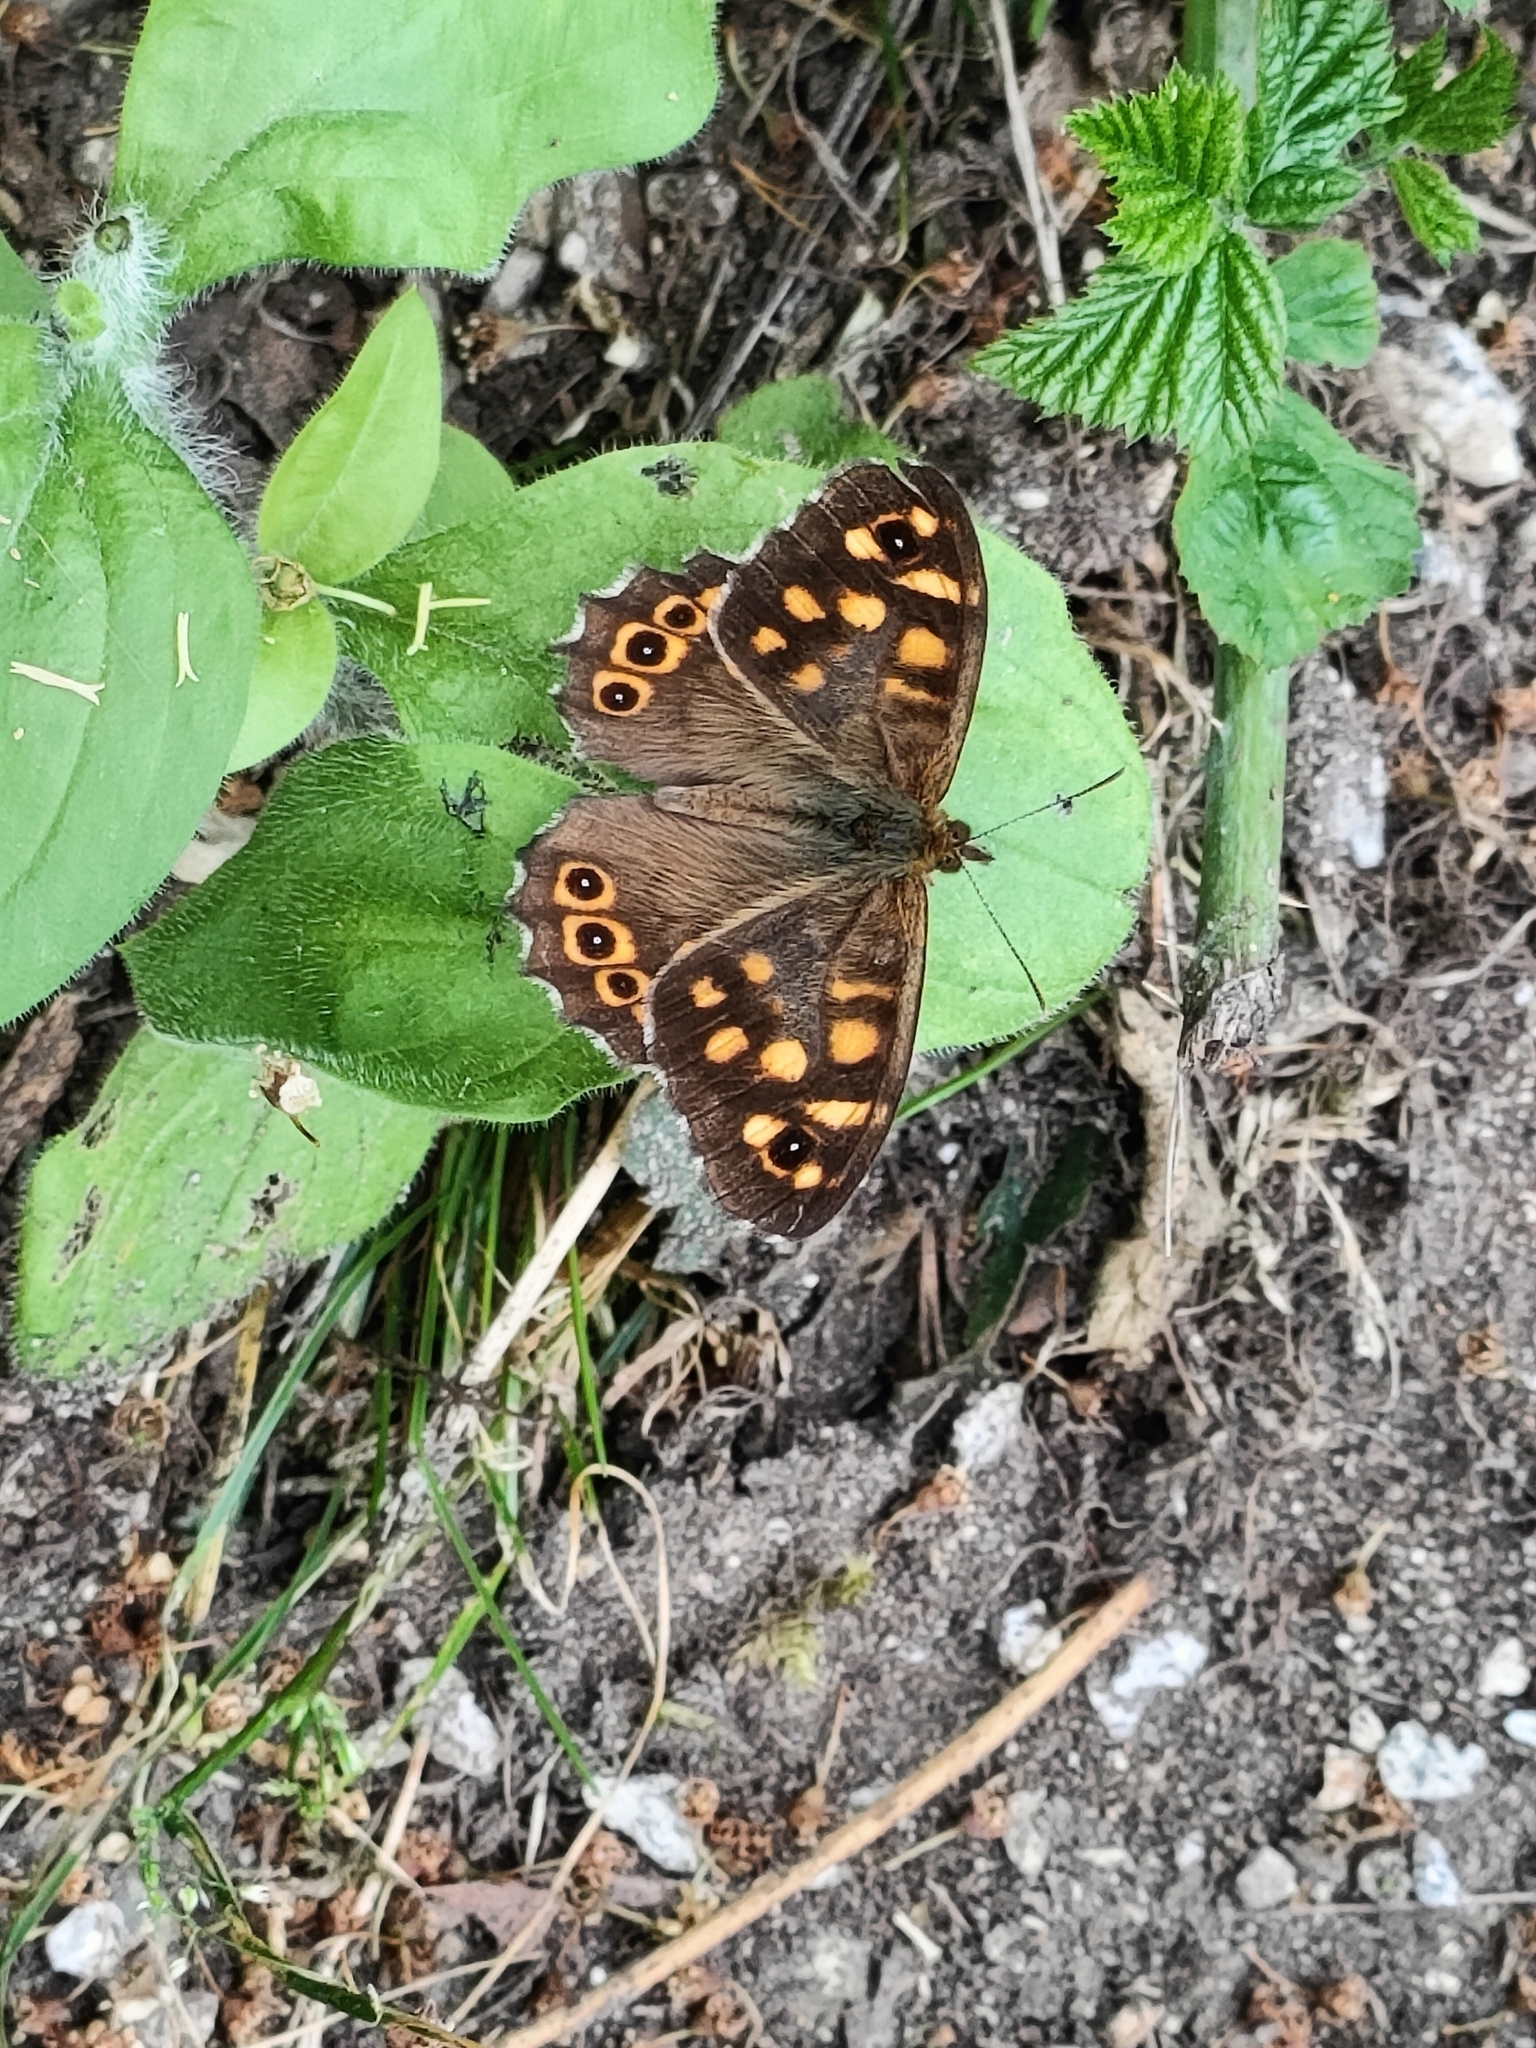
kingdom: Animalia
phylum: Arthropoda
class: Insecta
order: Lepidoptera
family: Nymphalidae
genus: Pararge
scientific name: Pararge aegeria
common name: Speckled wood
